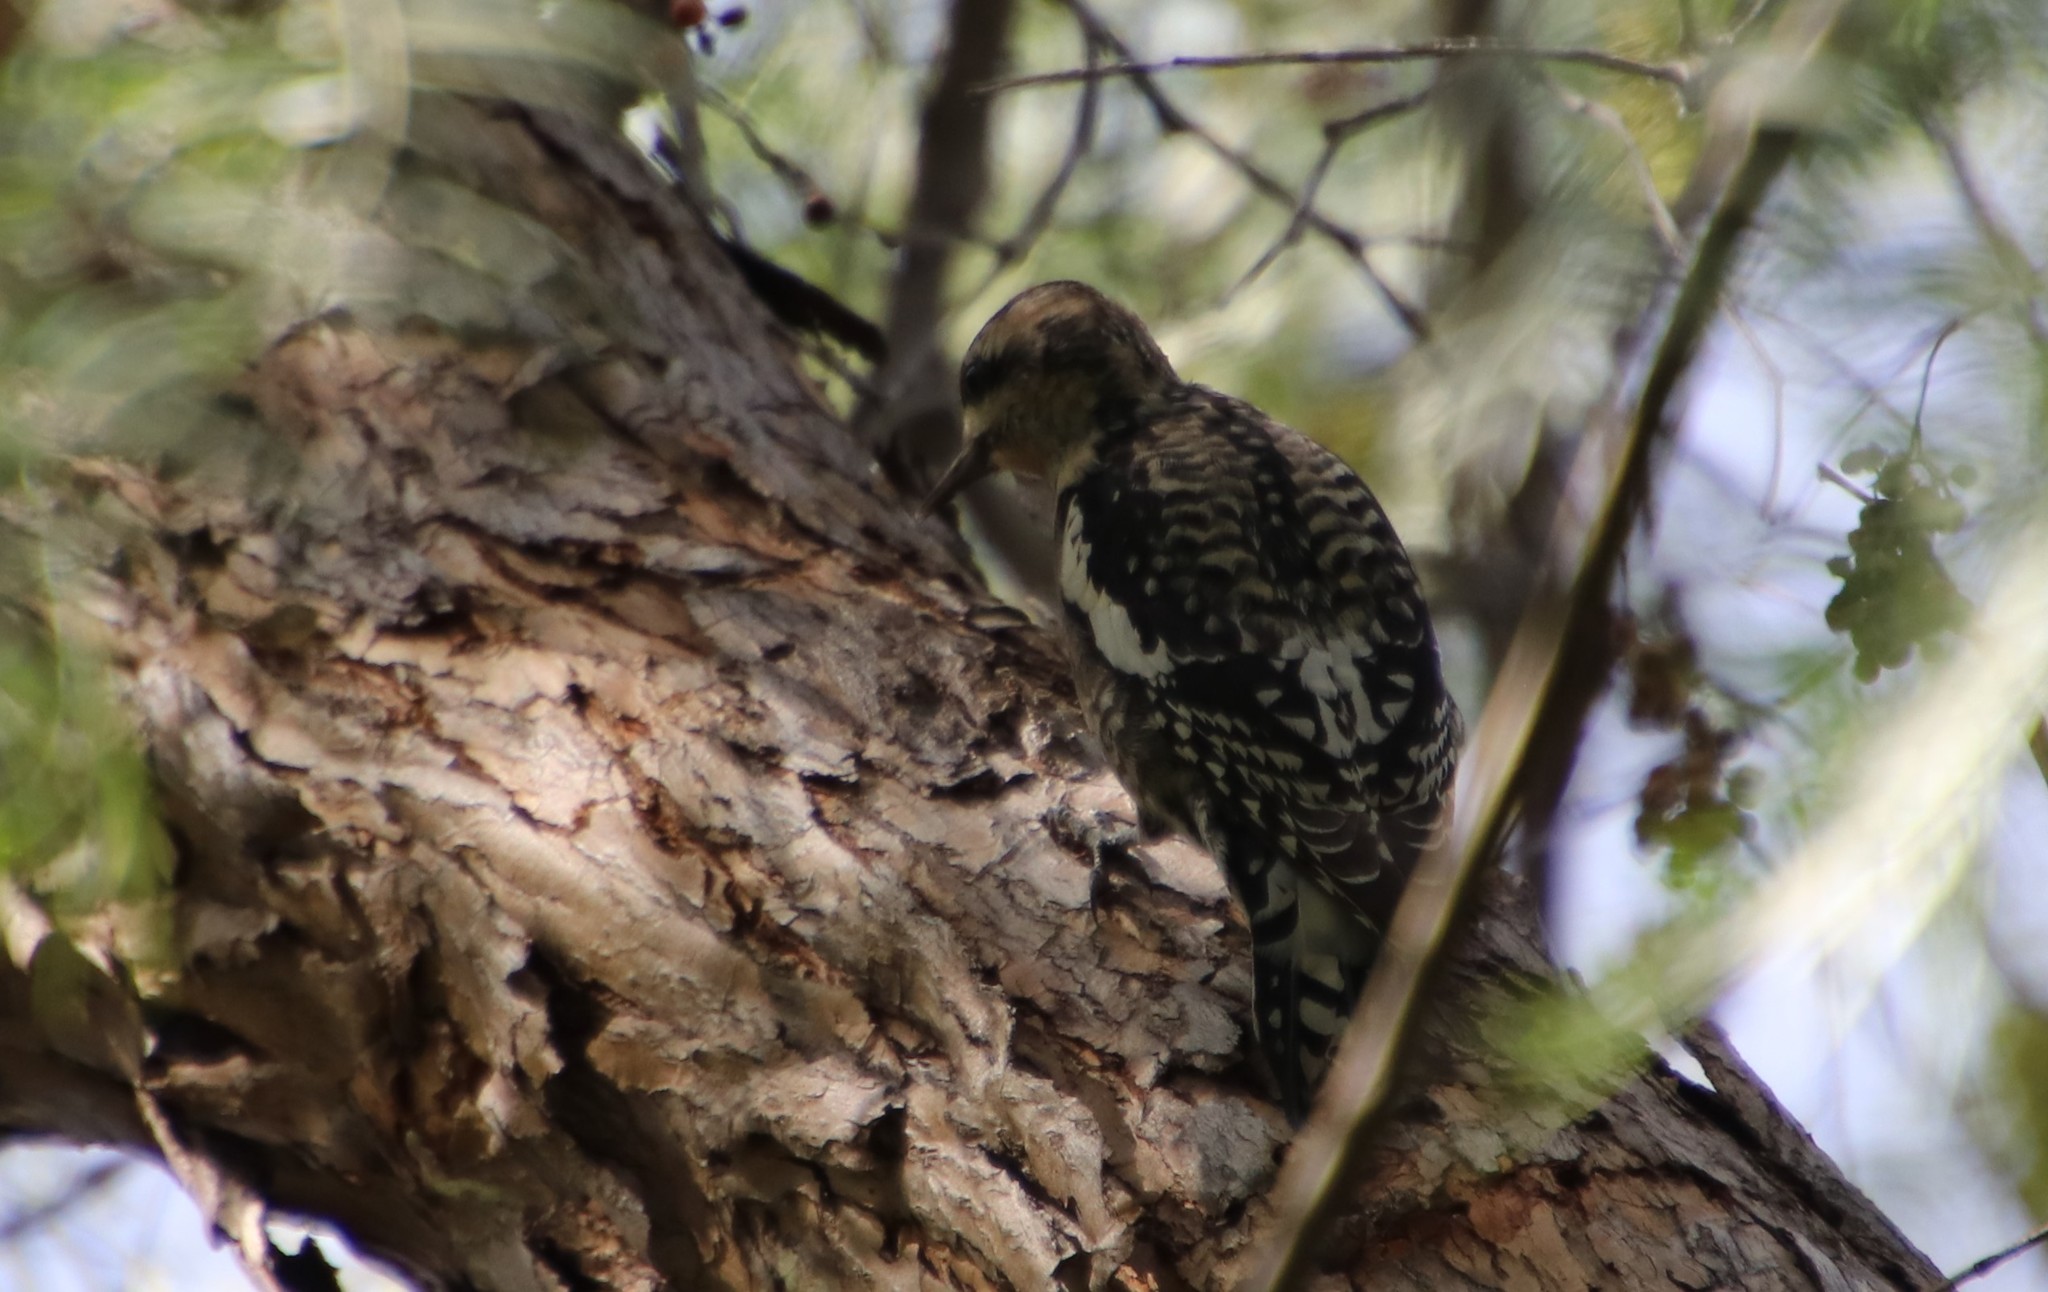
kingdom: Animalia
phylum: Chordata
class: Aves
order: Piciformes
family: Picidae
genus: Sphyrapicus
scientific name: Sphyrapicus varius
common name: Yellow-bellied sapsucker
